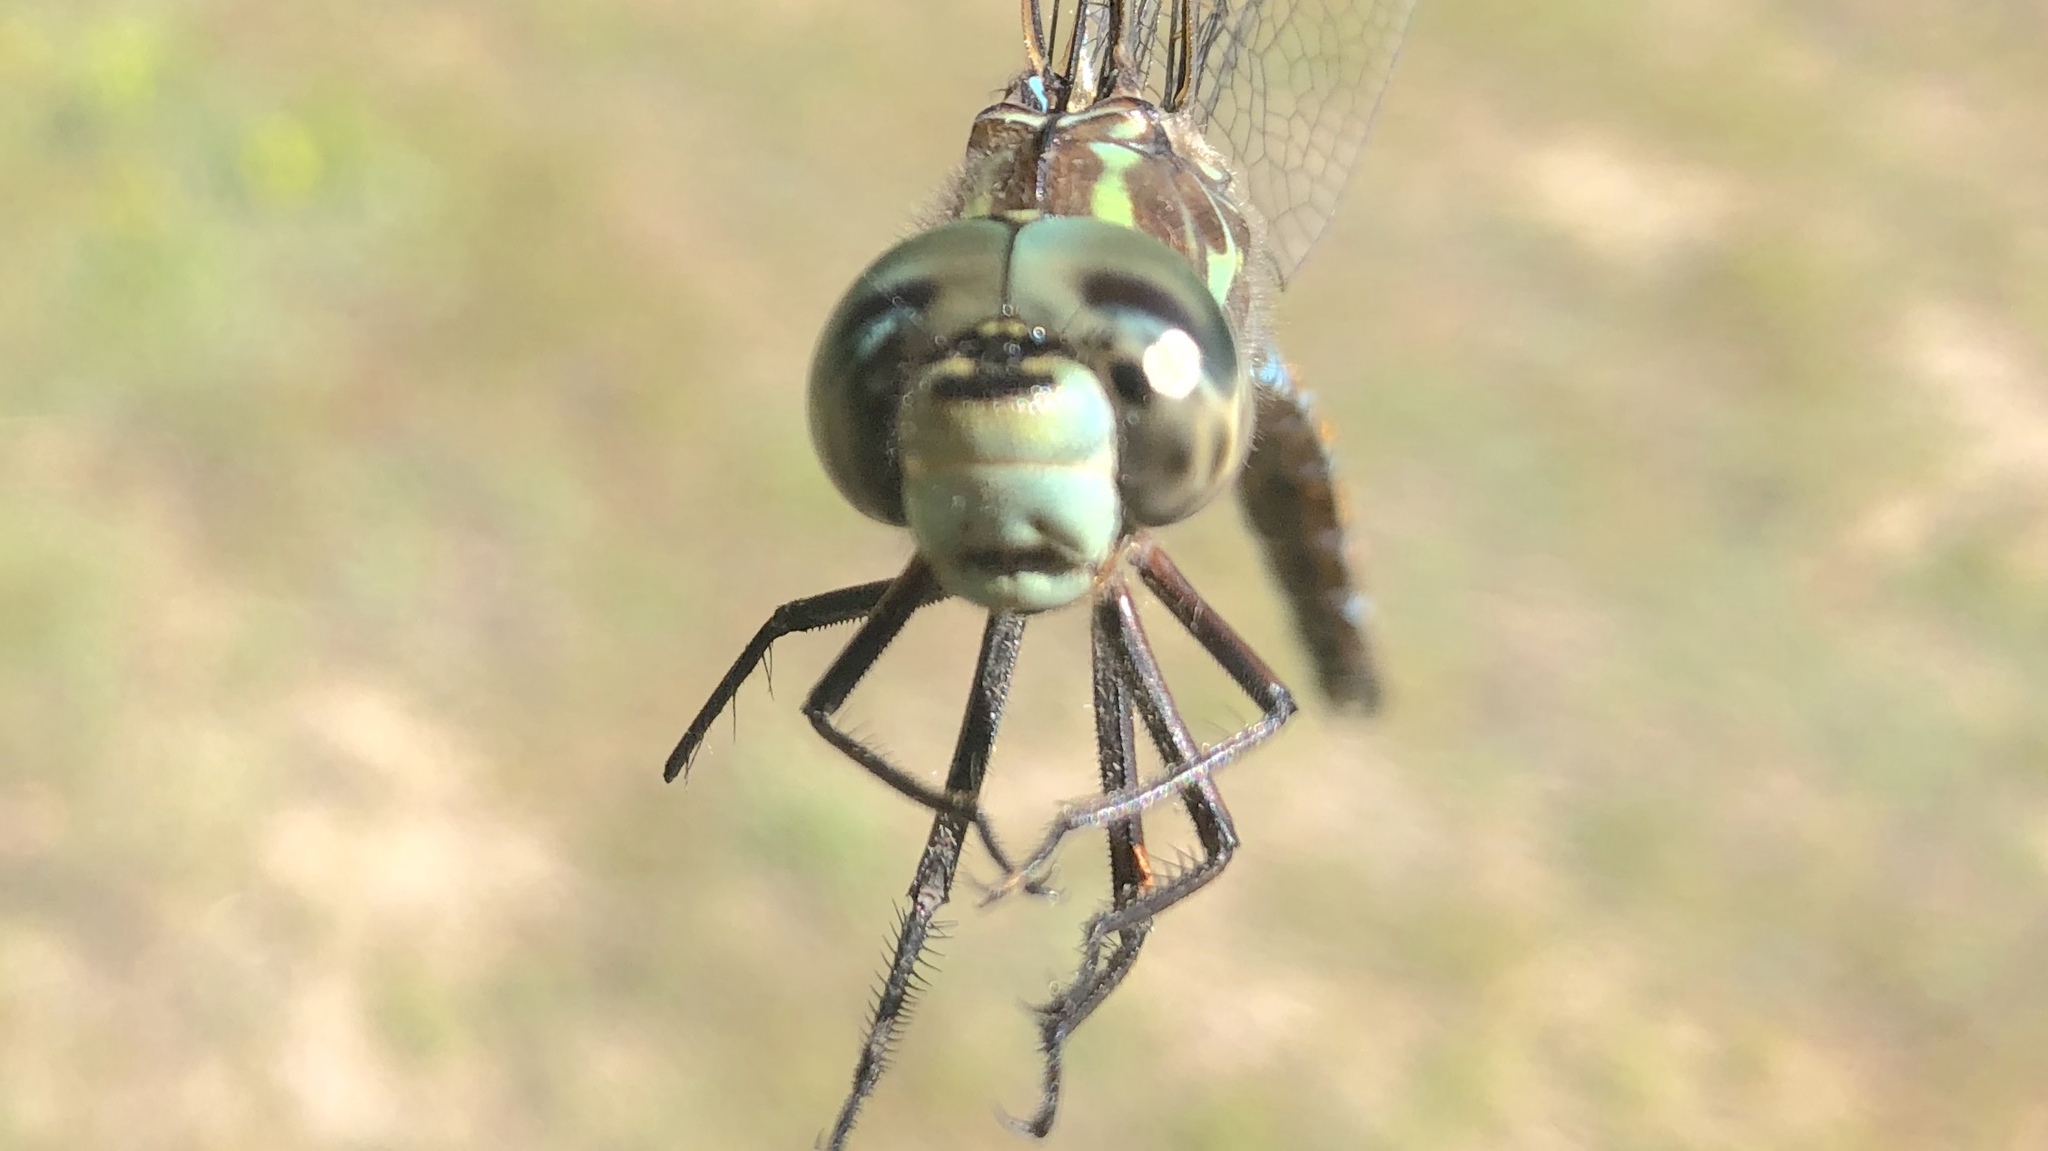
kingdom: Animalia
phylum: Arthropoda
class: Insecta
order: Odonata
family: Aeshnidae
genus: Aeshna
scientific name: Aeshna canadensis
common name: Canada darner
